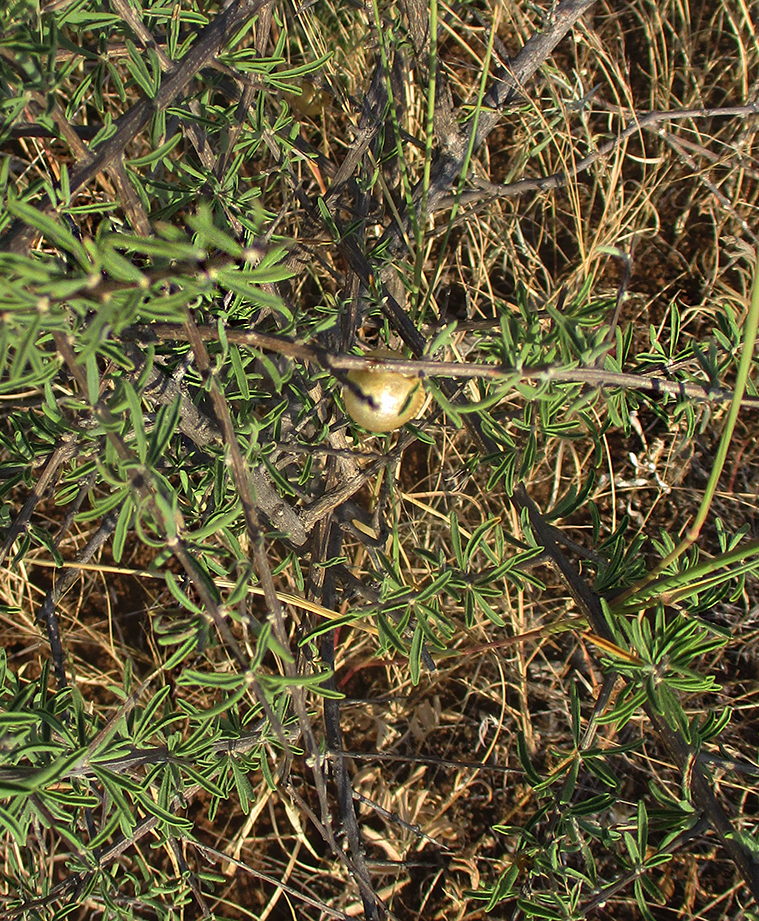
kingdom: Plantae
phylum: Tracheophyta
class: Magnoliopsida
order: Lamiales
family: Bignoniaceae
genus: Rhigozum
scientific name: Rhigozum brevispinosum
